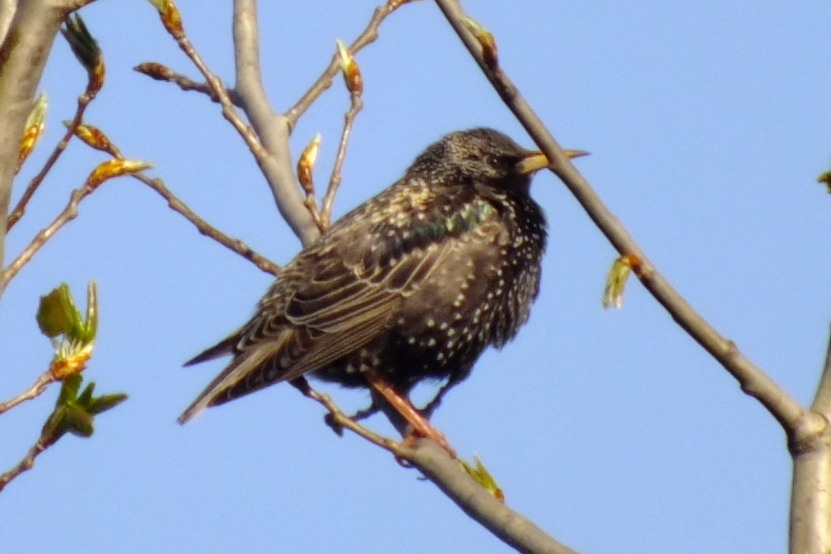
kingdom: Animalia
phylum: Chordata
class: Aves
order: Passeriformes
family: Sturnidae
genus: Sturnus
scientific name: Sturnus vulgaris
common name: Common starling
